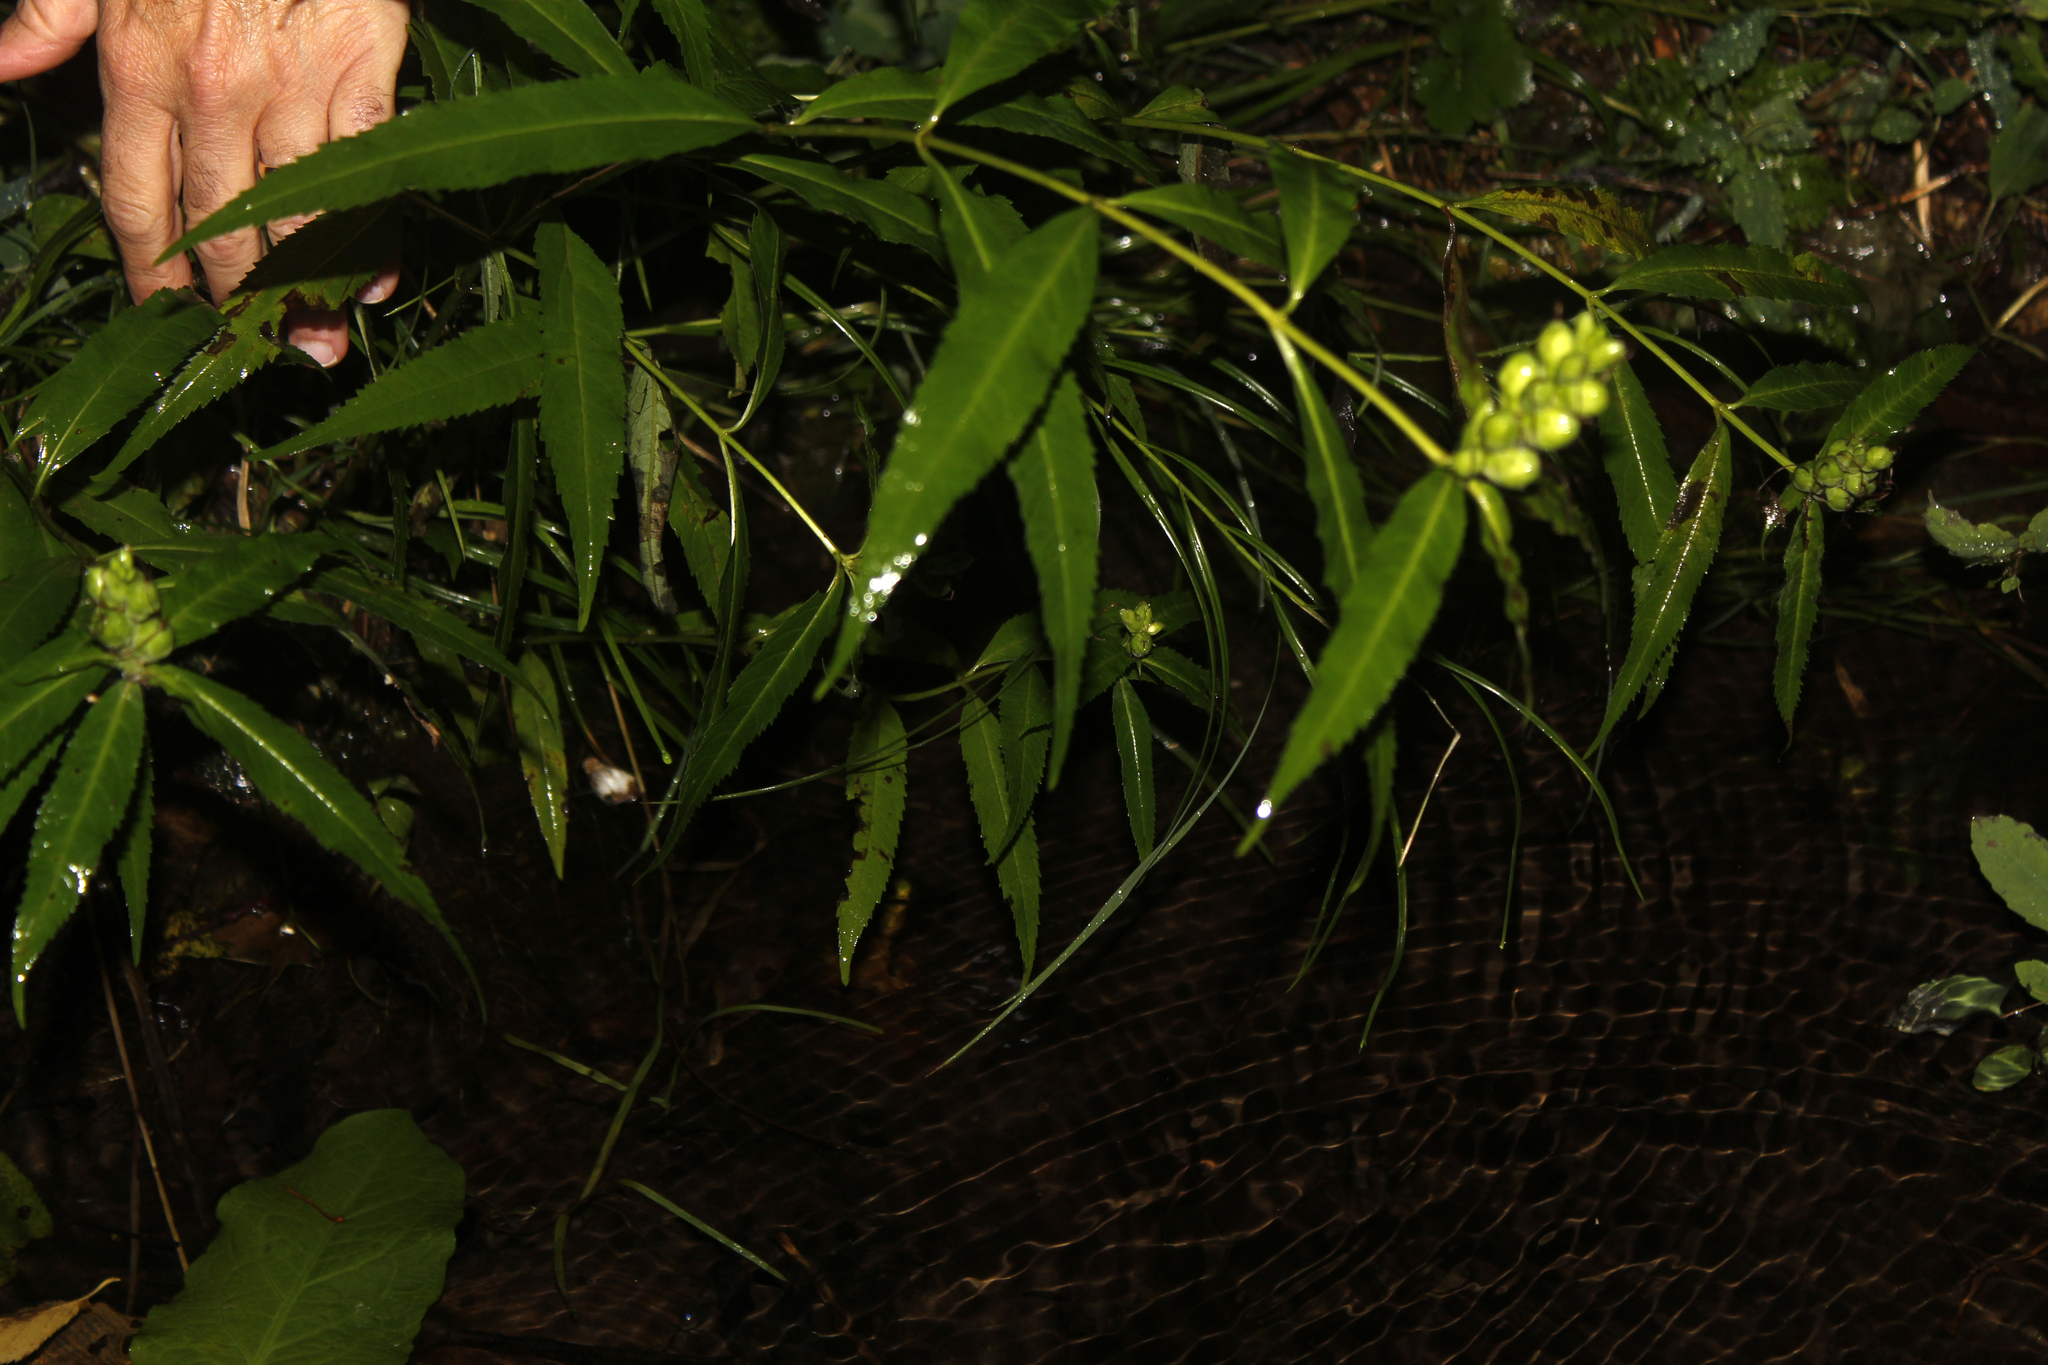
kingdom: Plantae
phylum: Tracheophyta
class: Magnoliopsida
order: Lamiales
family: Plantaginaceae
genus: Chelone
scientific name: Chelone glabra
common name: Snakehead
